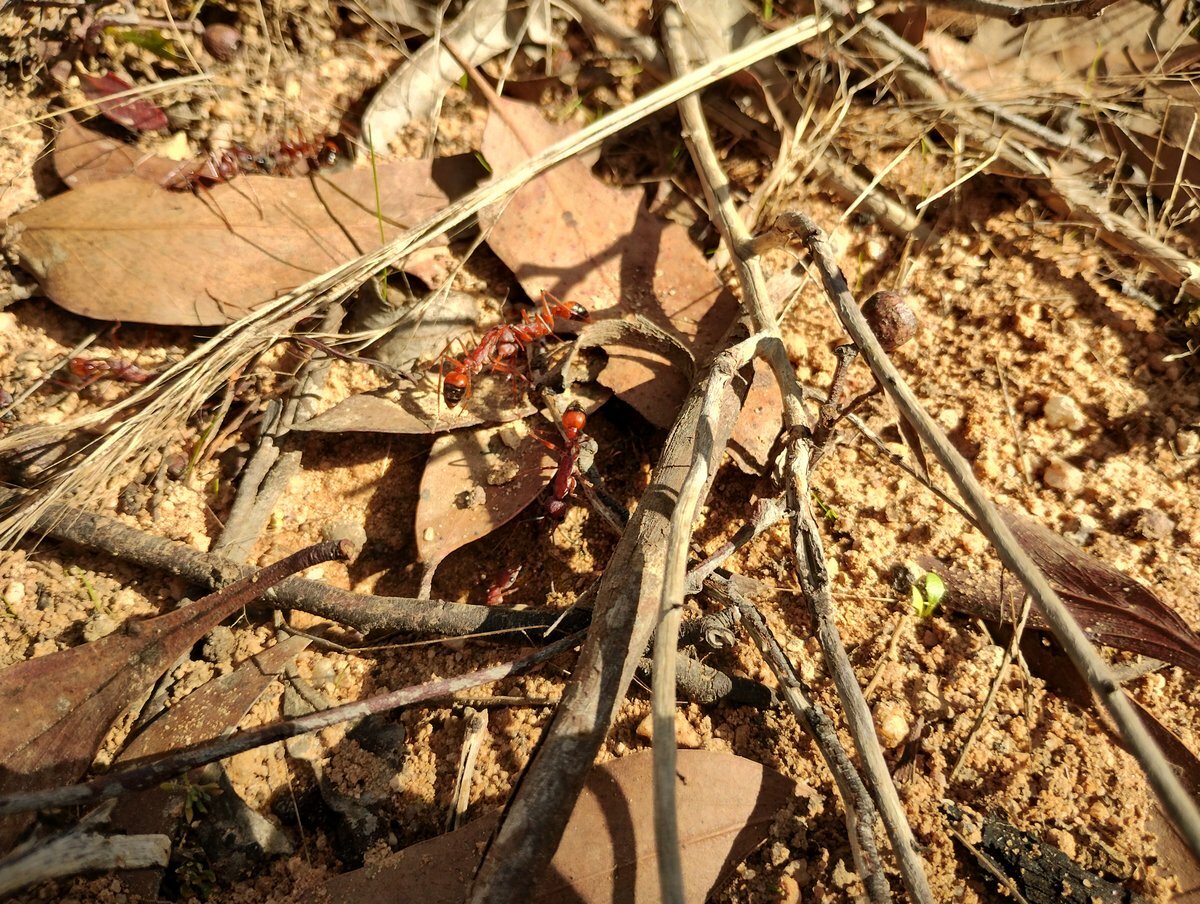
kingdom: Animalia
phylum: Arthropoda
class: Insecta
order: Hymenoptera
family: Formicidae
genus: Myrmecia
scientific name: Myrmecia nigriscapa
